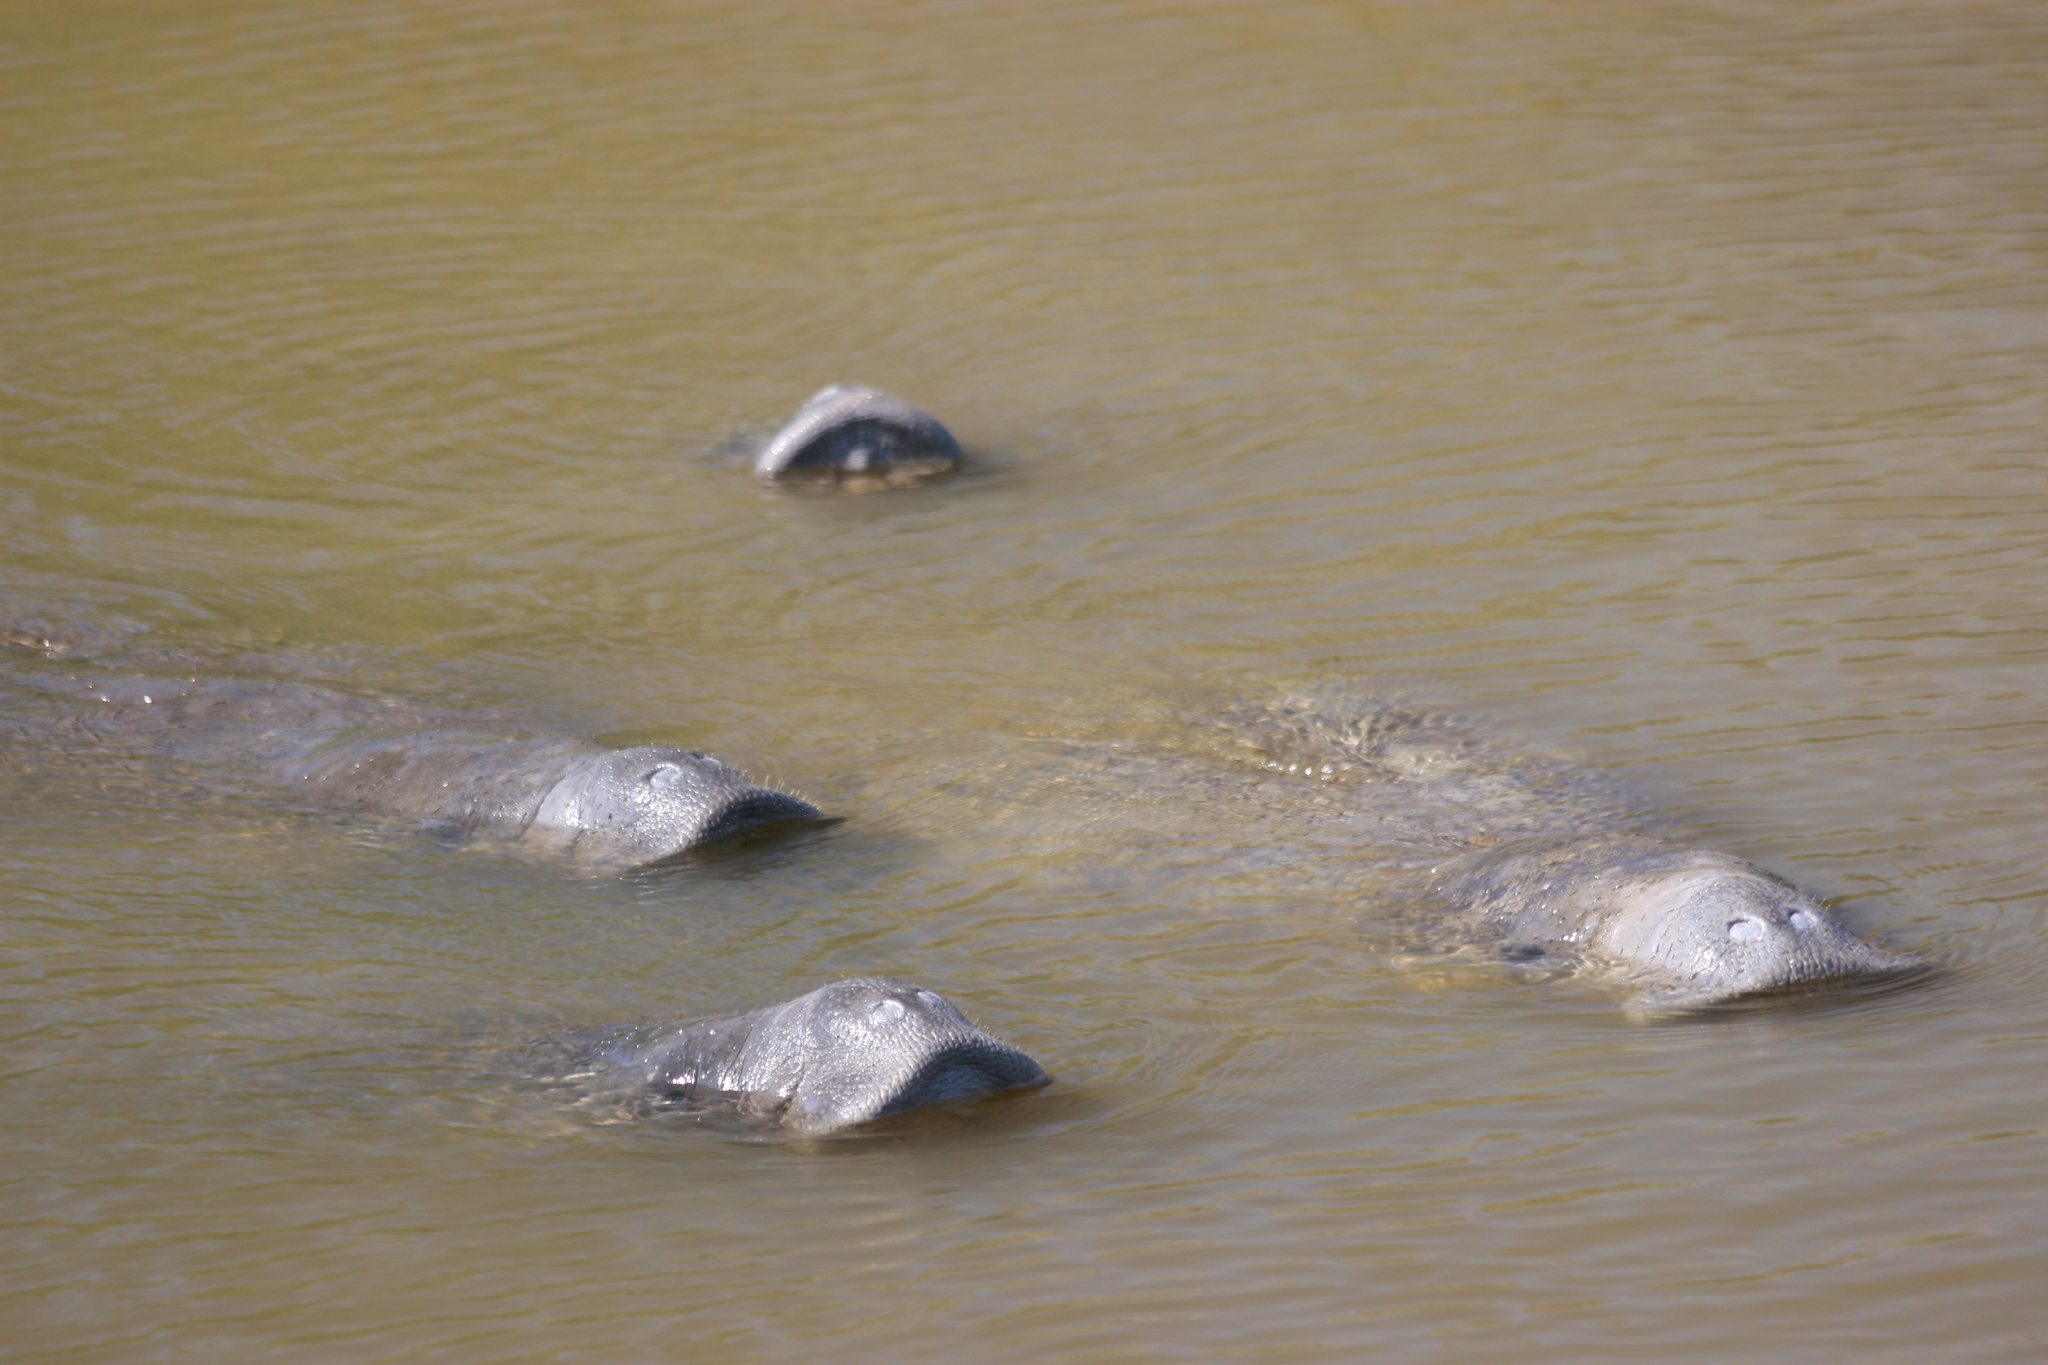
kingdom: Animalia
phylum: Chordata
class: Mammalia
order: Sirenia
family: Trichechidae
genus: Trichechus
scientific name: Trichechus manatus
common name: West indian manatee
